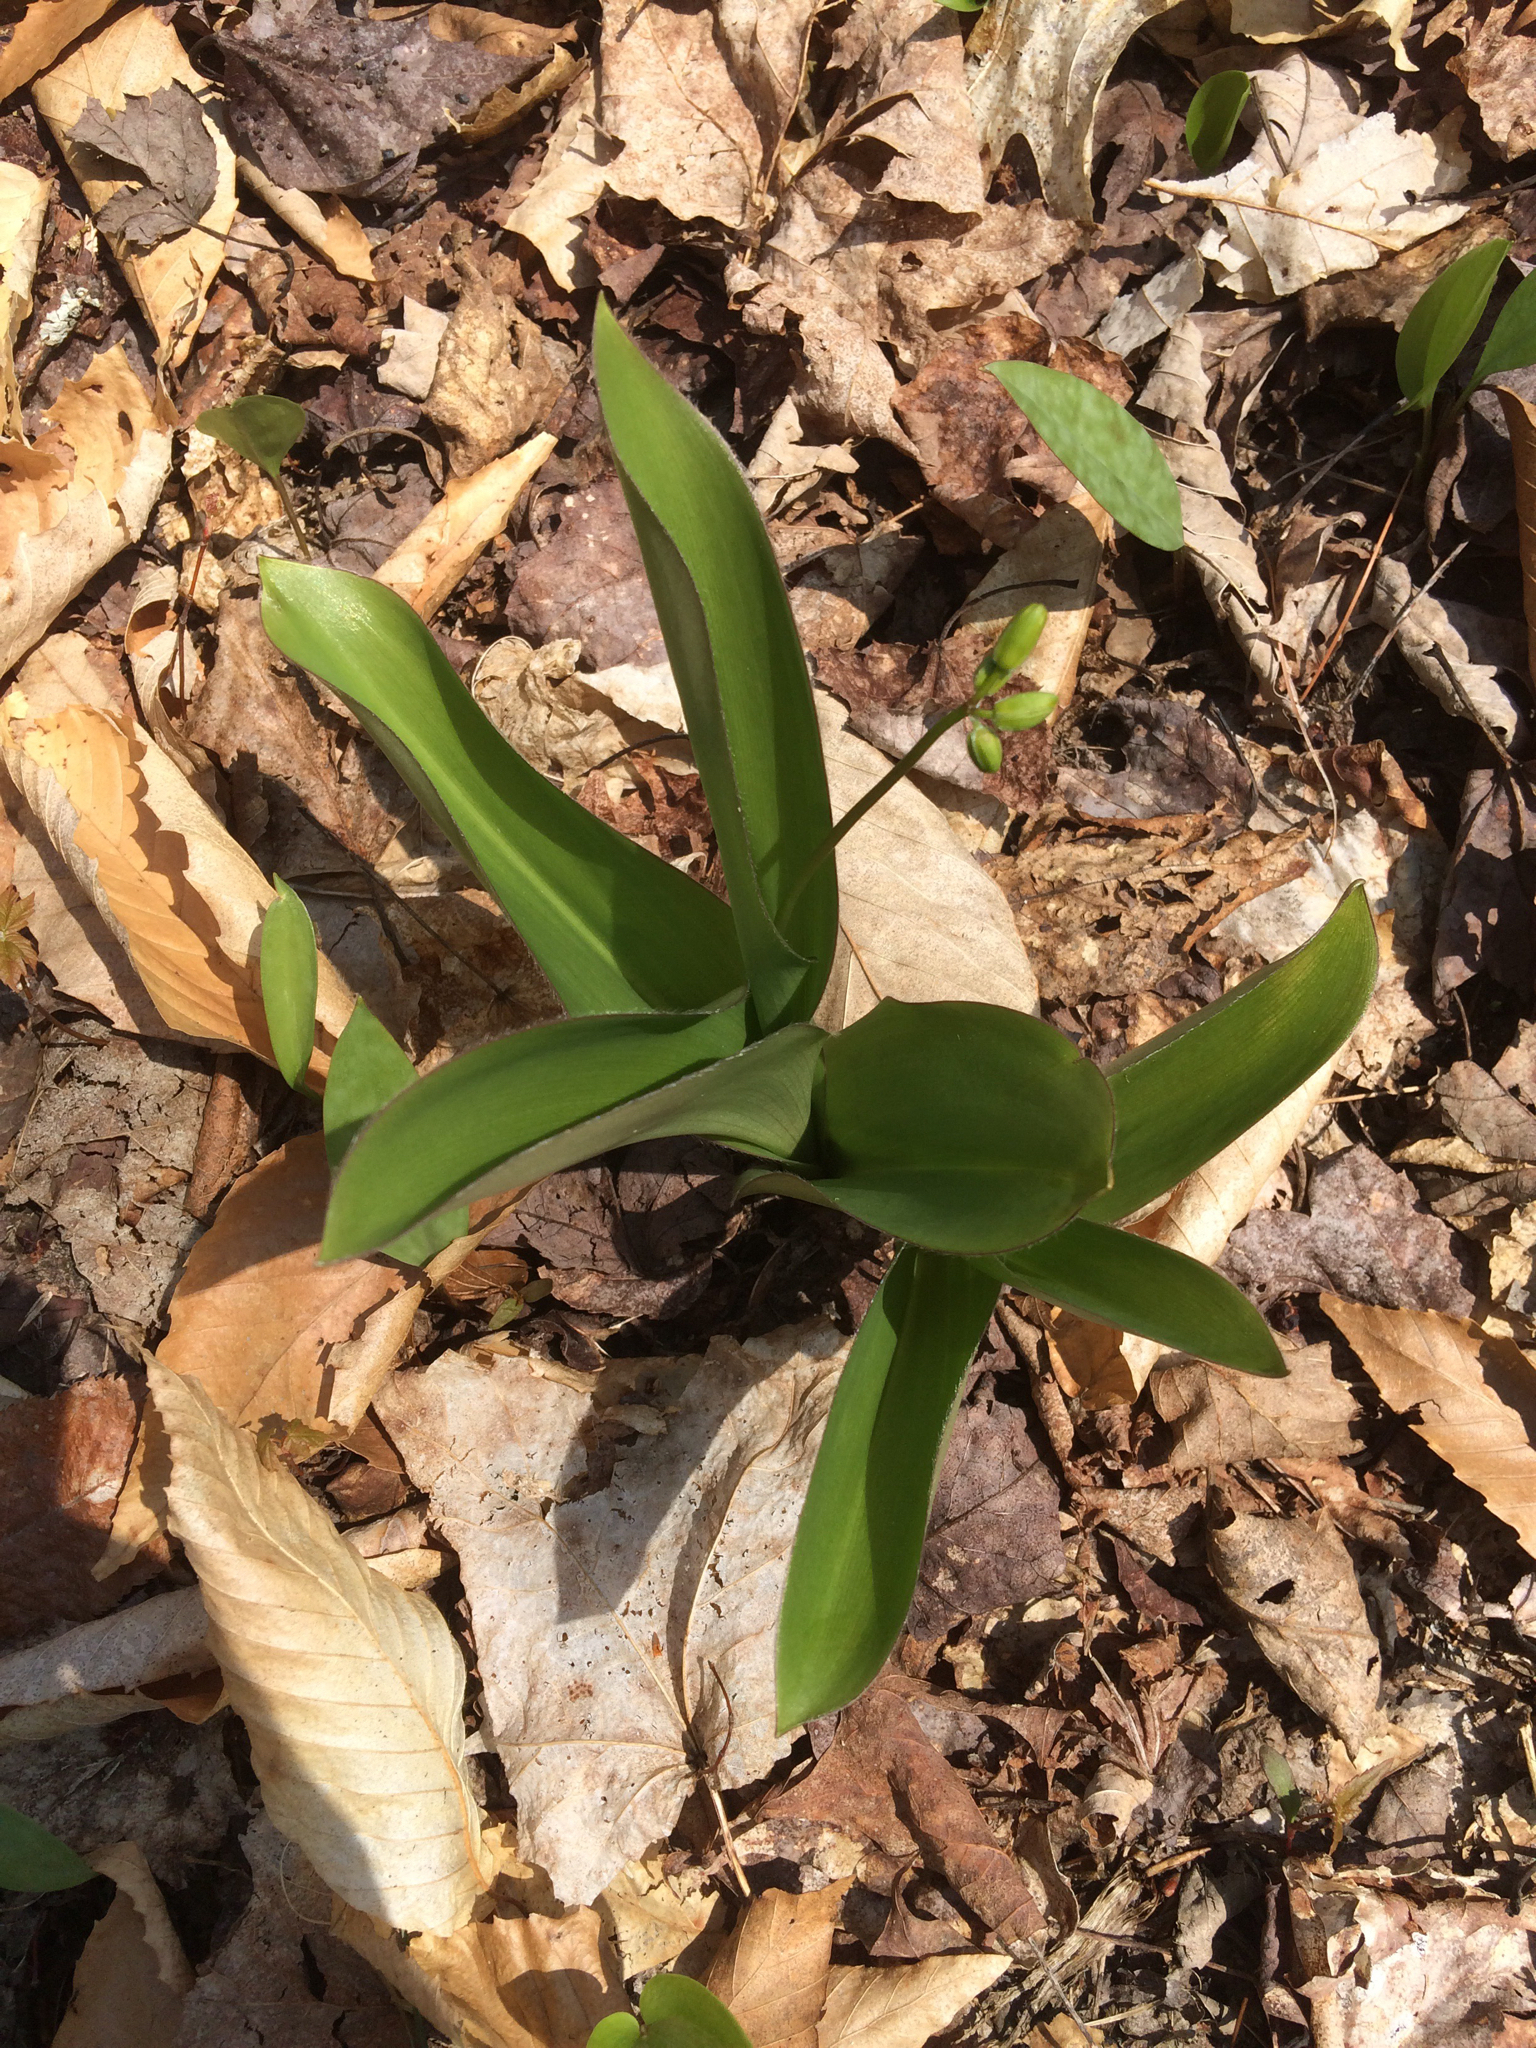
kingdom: Plantae
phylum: Tracheophyta
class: Liliopsida
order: Liliales
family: Liliaceae
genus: Clintonia
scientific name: Clintonia borealis
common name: Yellow clintonia
